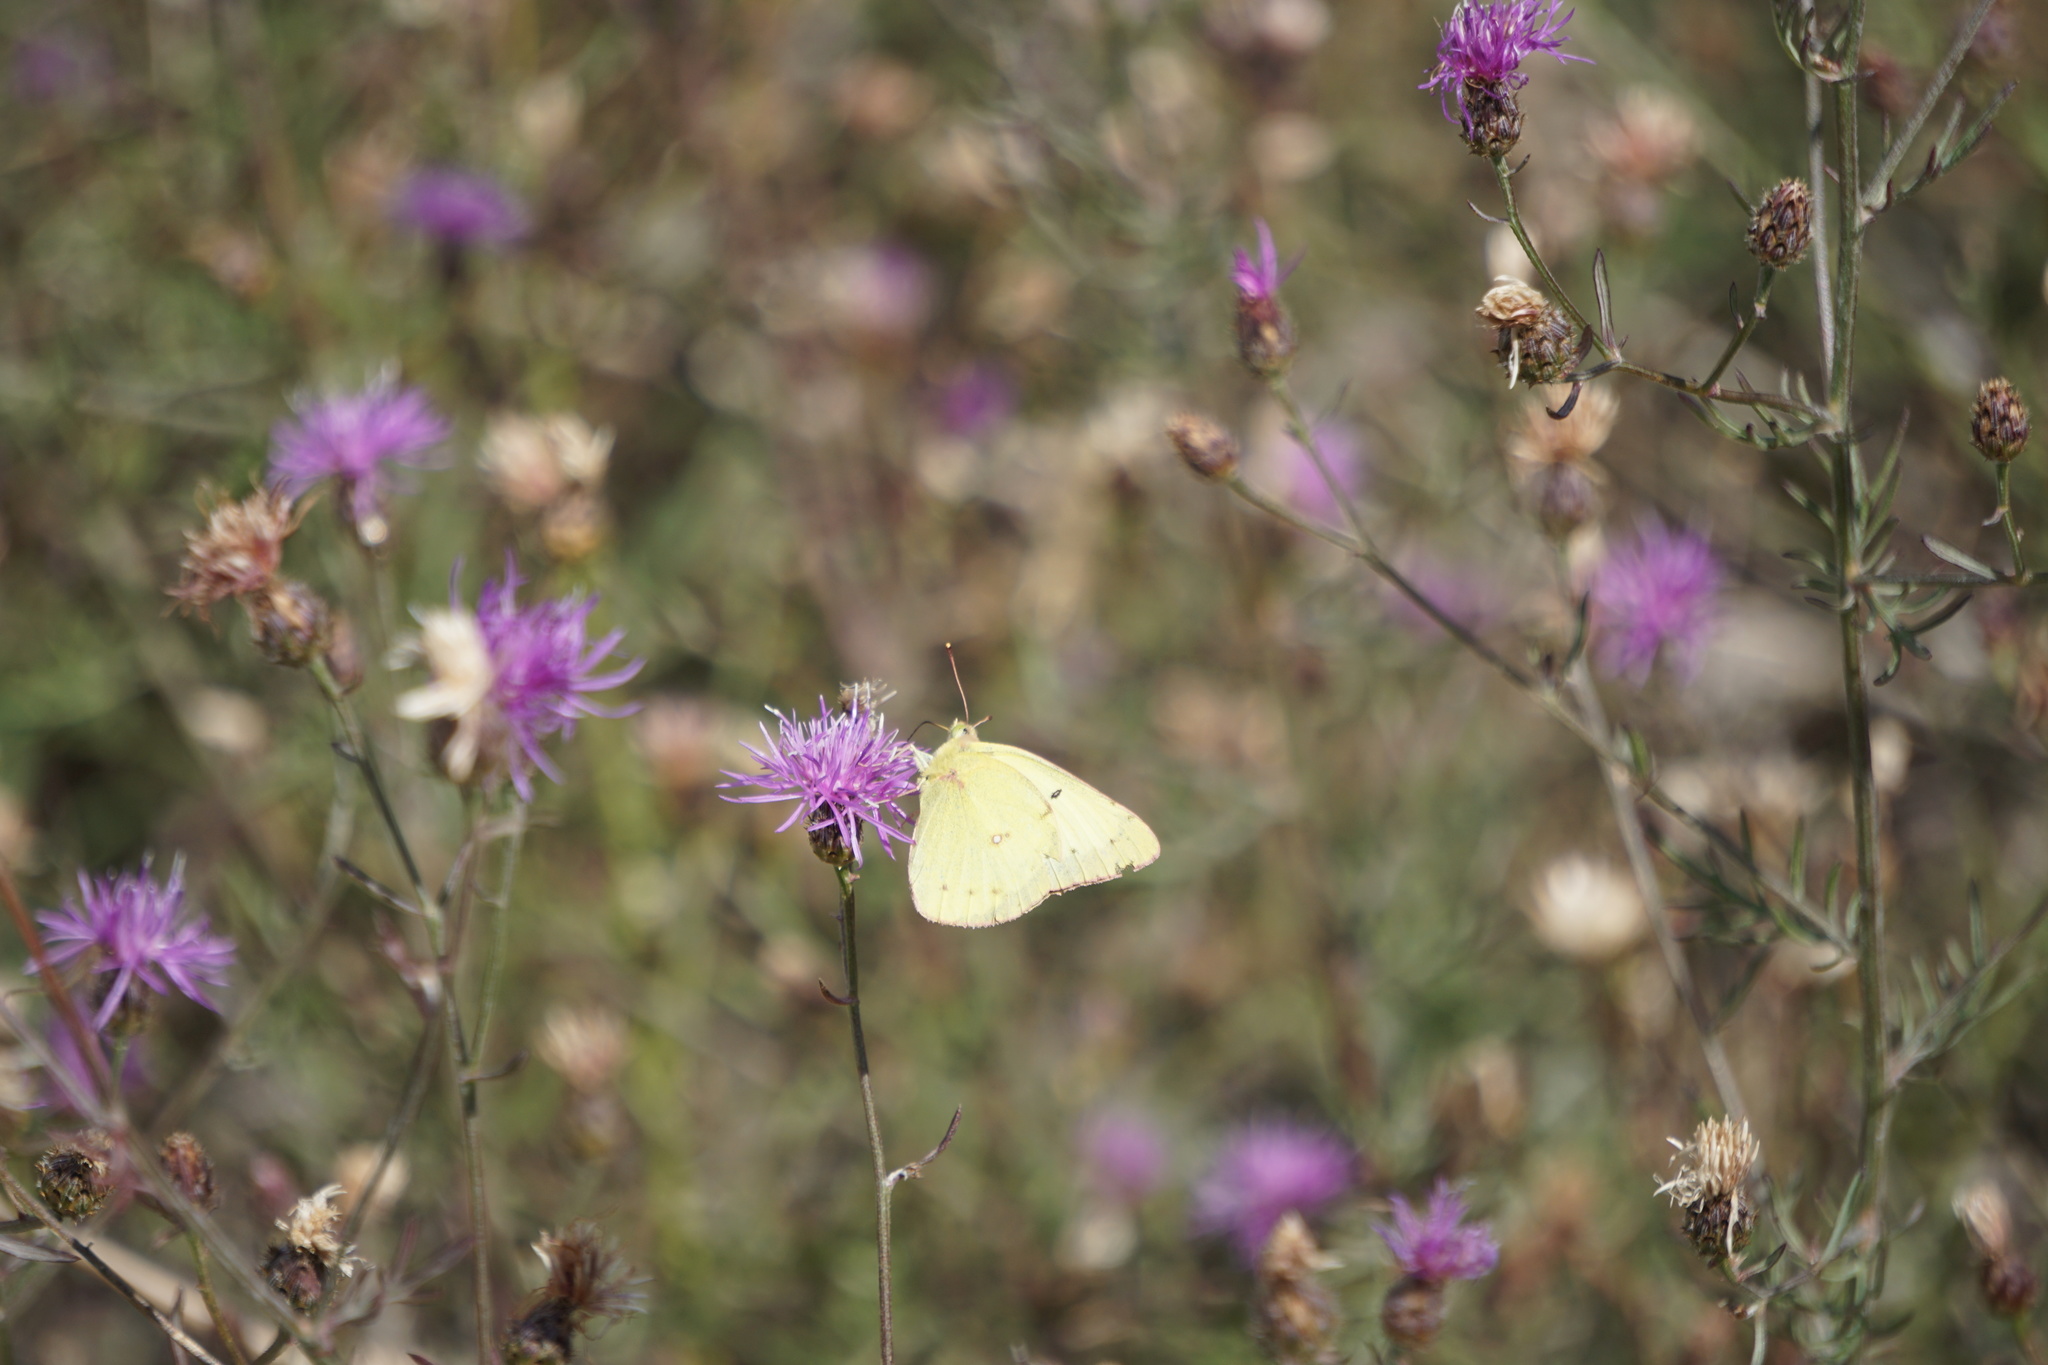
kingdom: Animalia
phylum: Arthropoda
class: Insecta
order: Lepidoptera
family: Pieridae
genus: Colias
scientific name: Colias philodice
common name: Clouded sulphur
